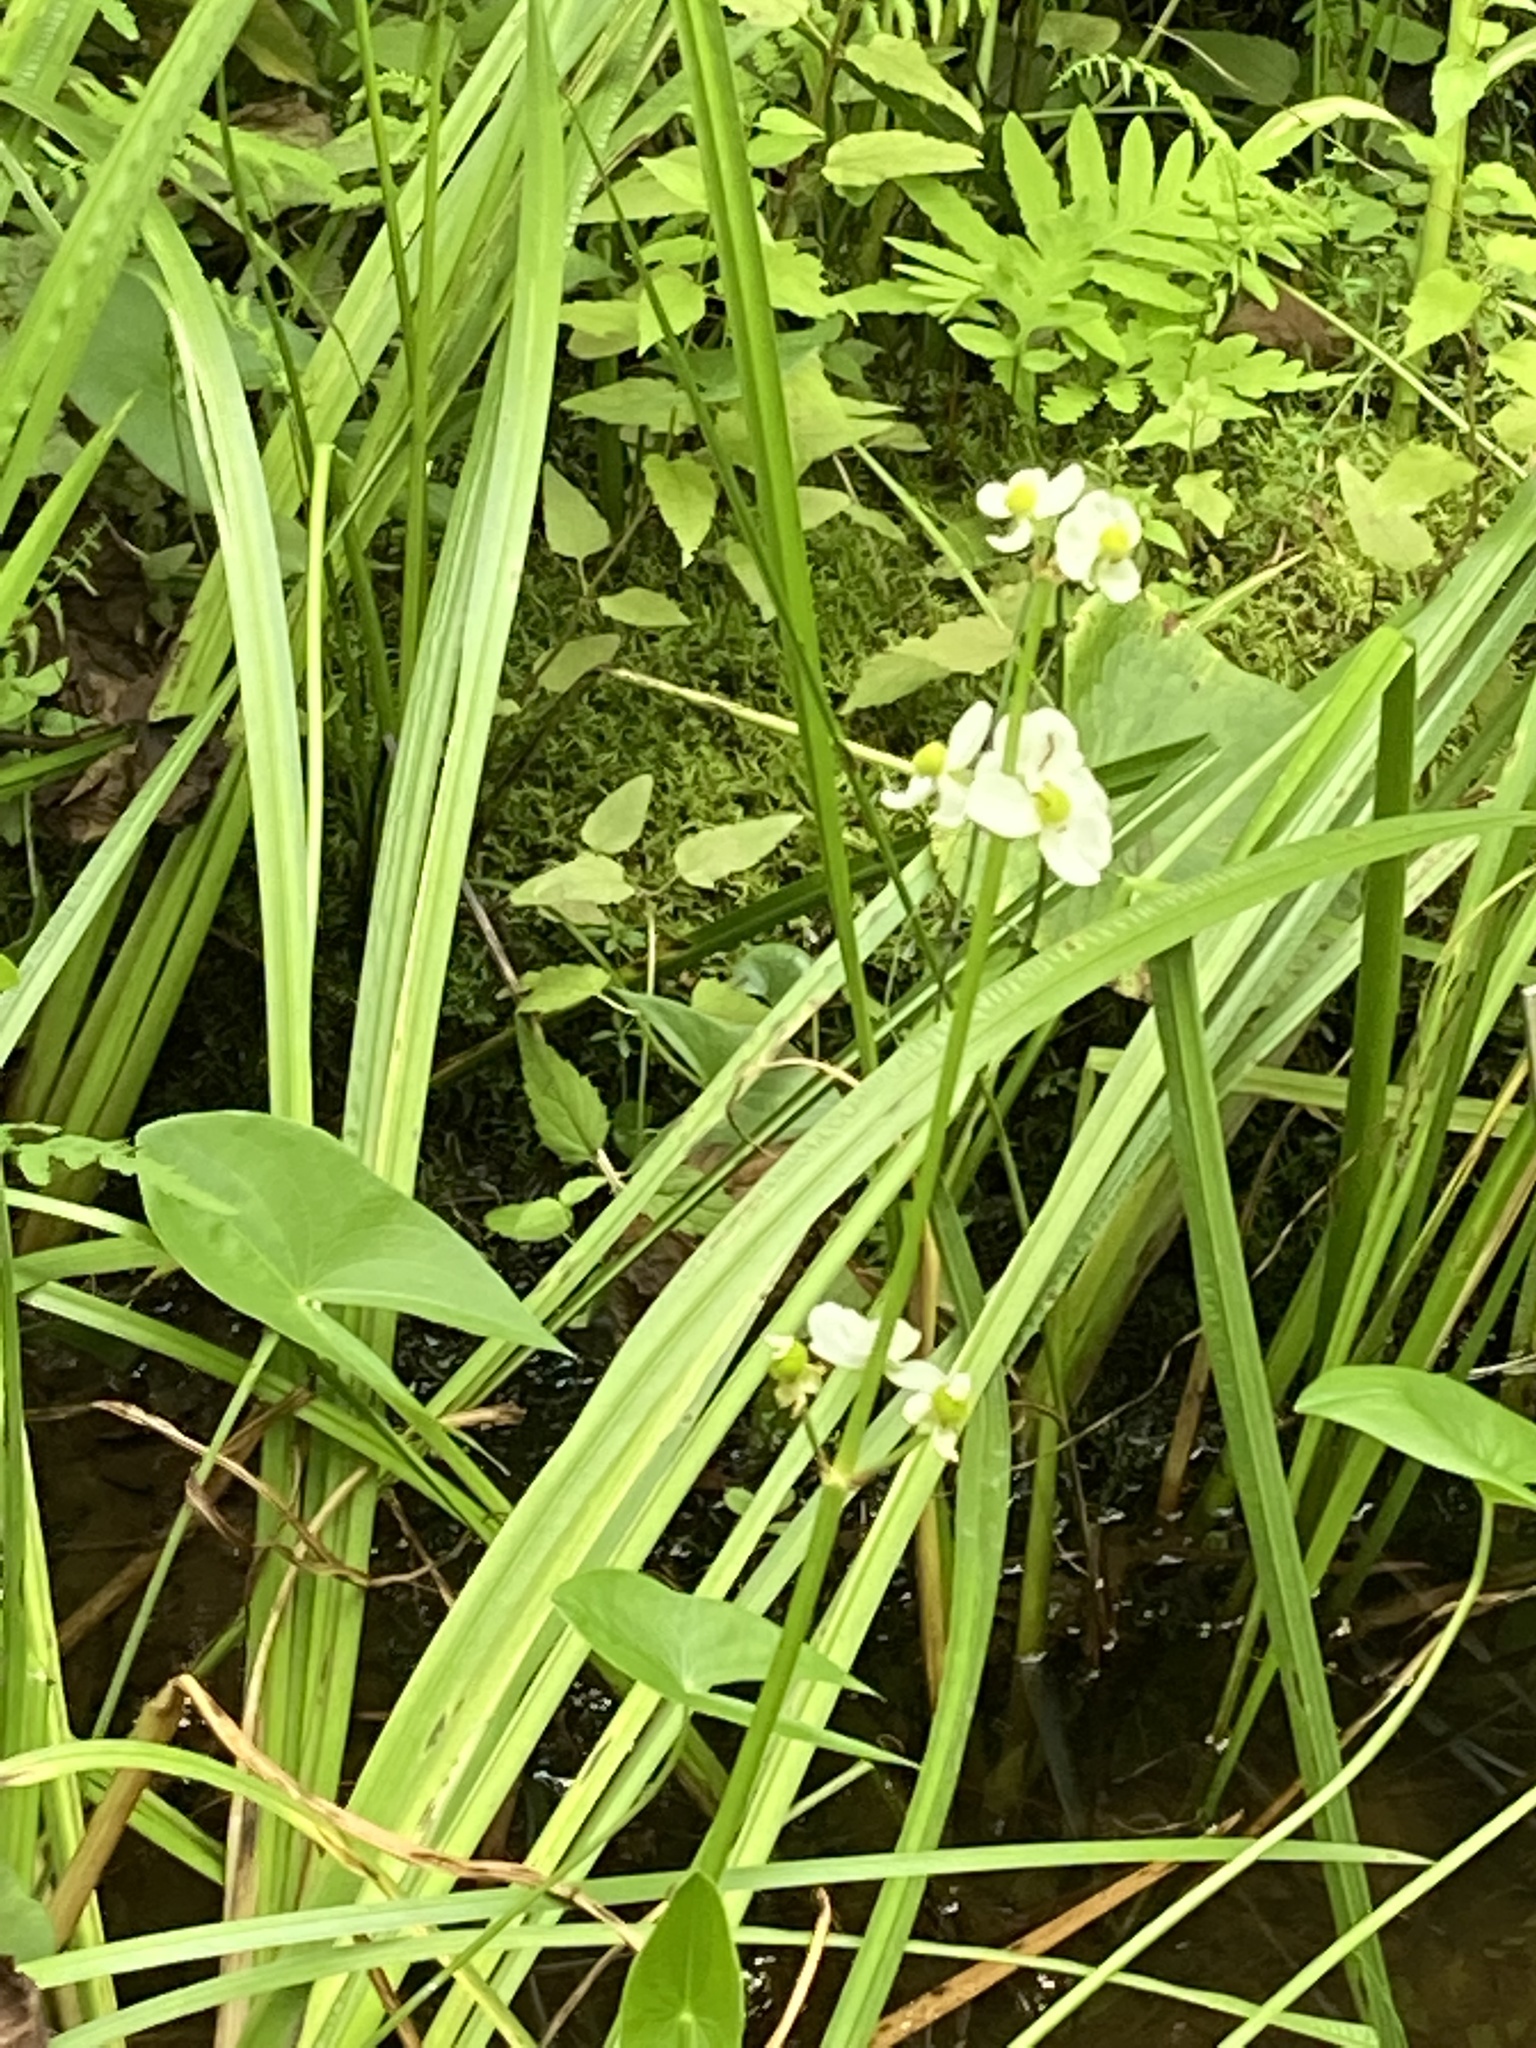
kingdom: Plantae
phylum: Tracheophyta
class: Liliopsida
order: Alismatales
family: Alismataceae
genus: Sagittaria
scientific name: Sagittaria latifolia
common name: Duck-potato
